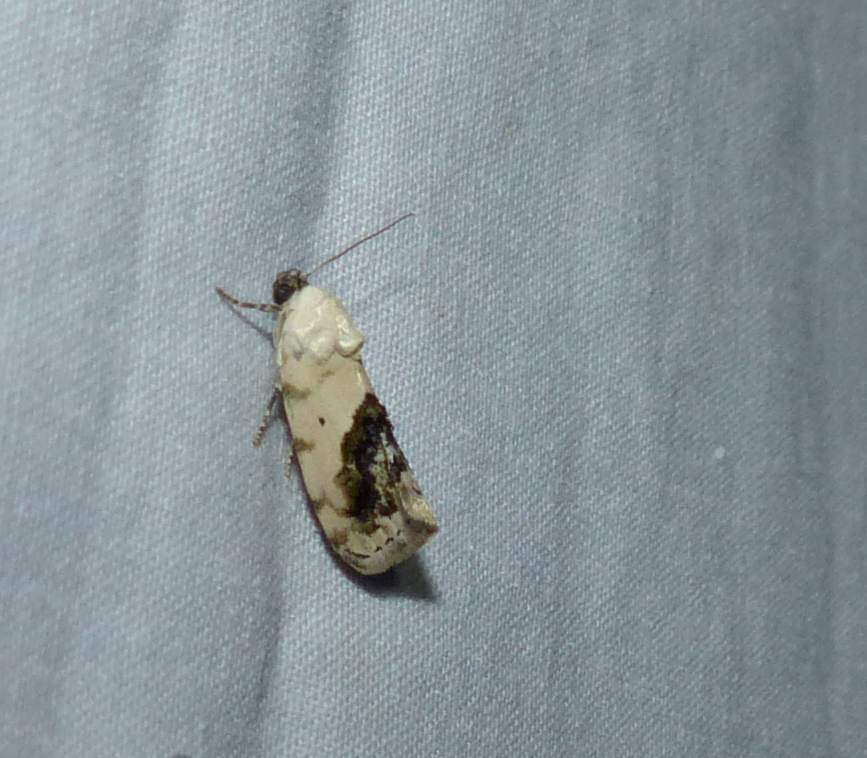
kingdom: Animalia
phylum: Arthropoda
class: Insecta
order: Lepidoptera
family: Noctuidae
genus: Acontia
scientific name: Acontia erastrioides
